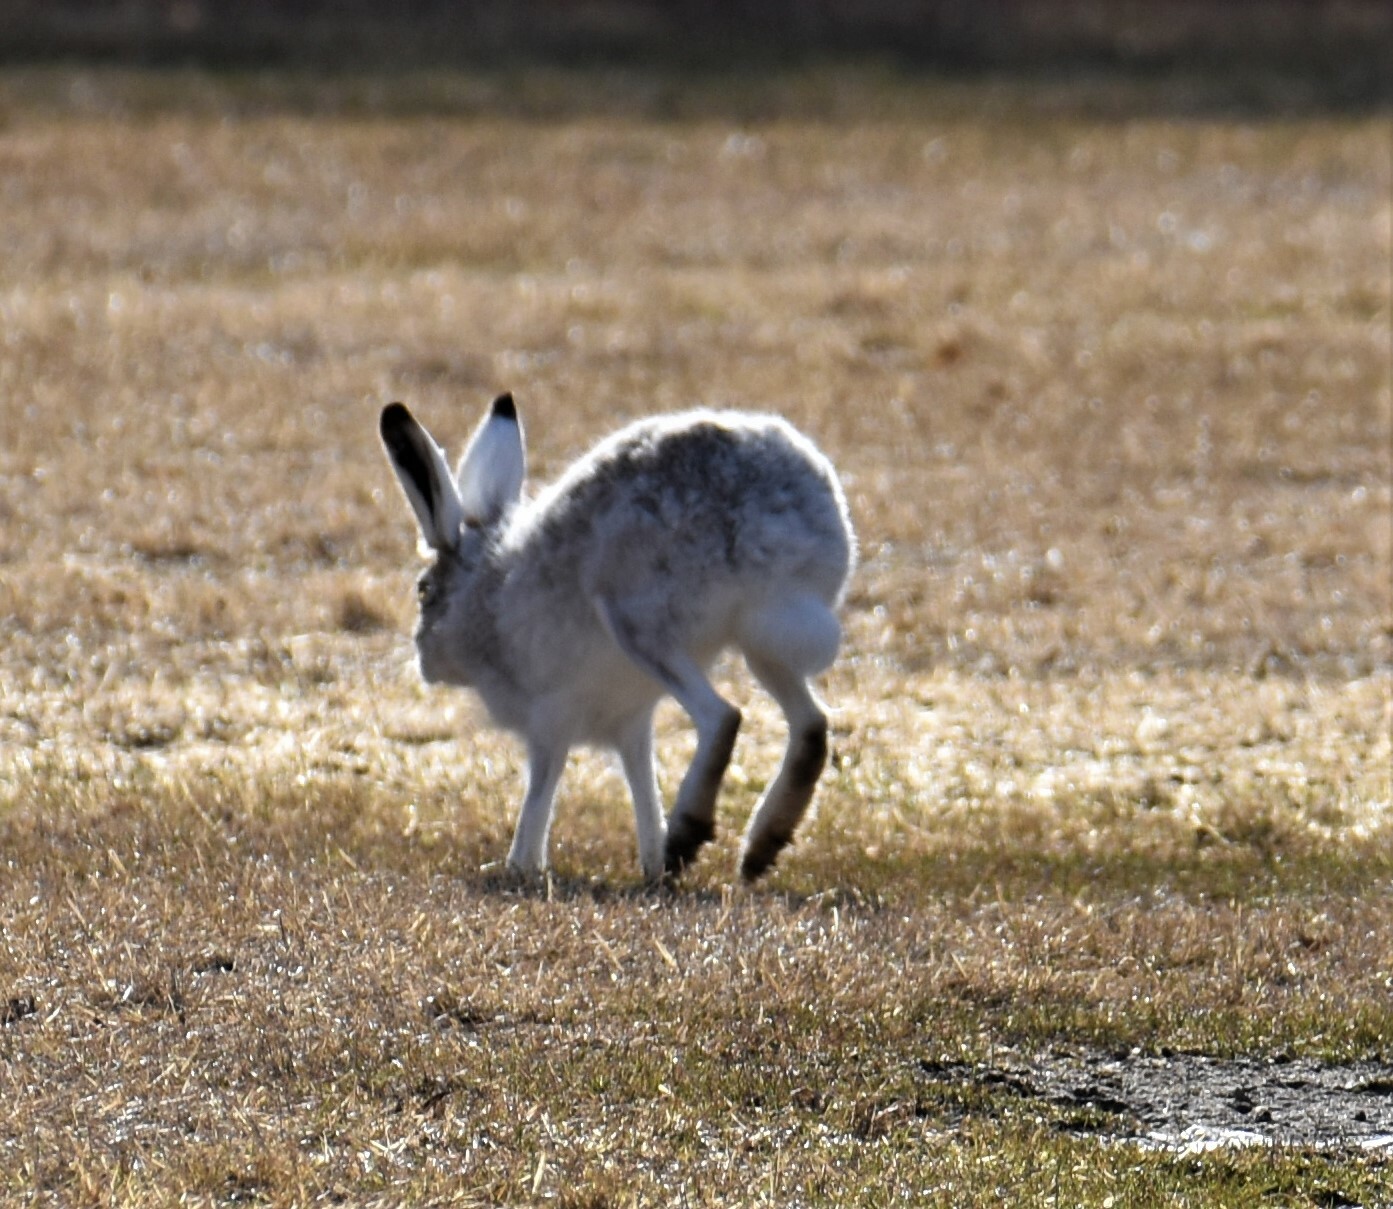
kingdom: Animalia
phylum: Chordata
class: Mammalia
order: Lagomorpha
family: Leporidae
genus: Lepus
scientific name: Lepus townsendii
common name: White-tailed jackrabbit
